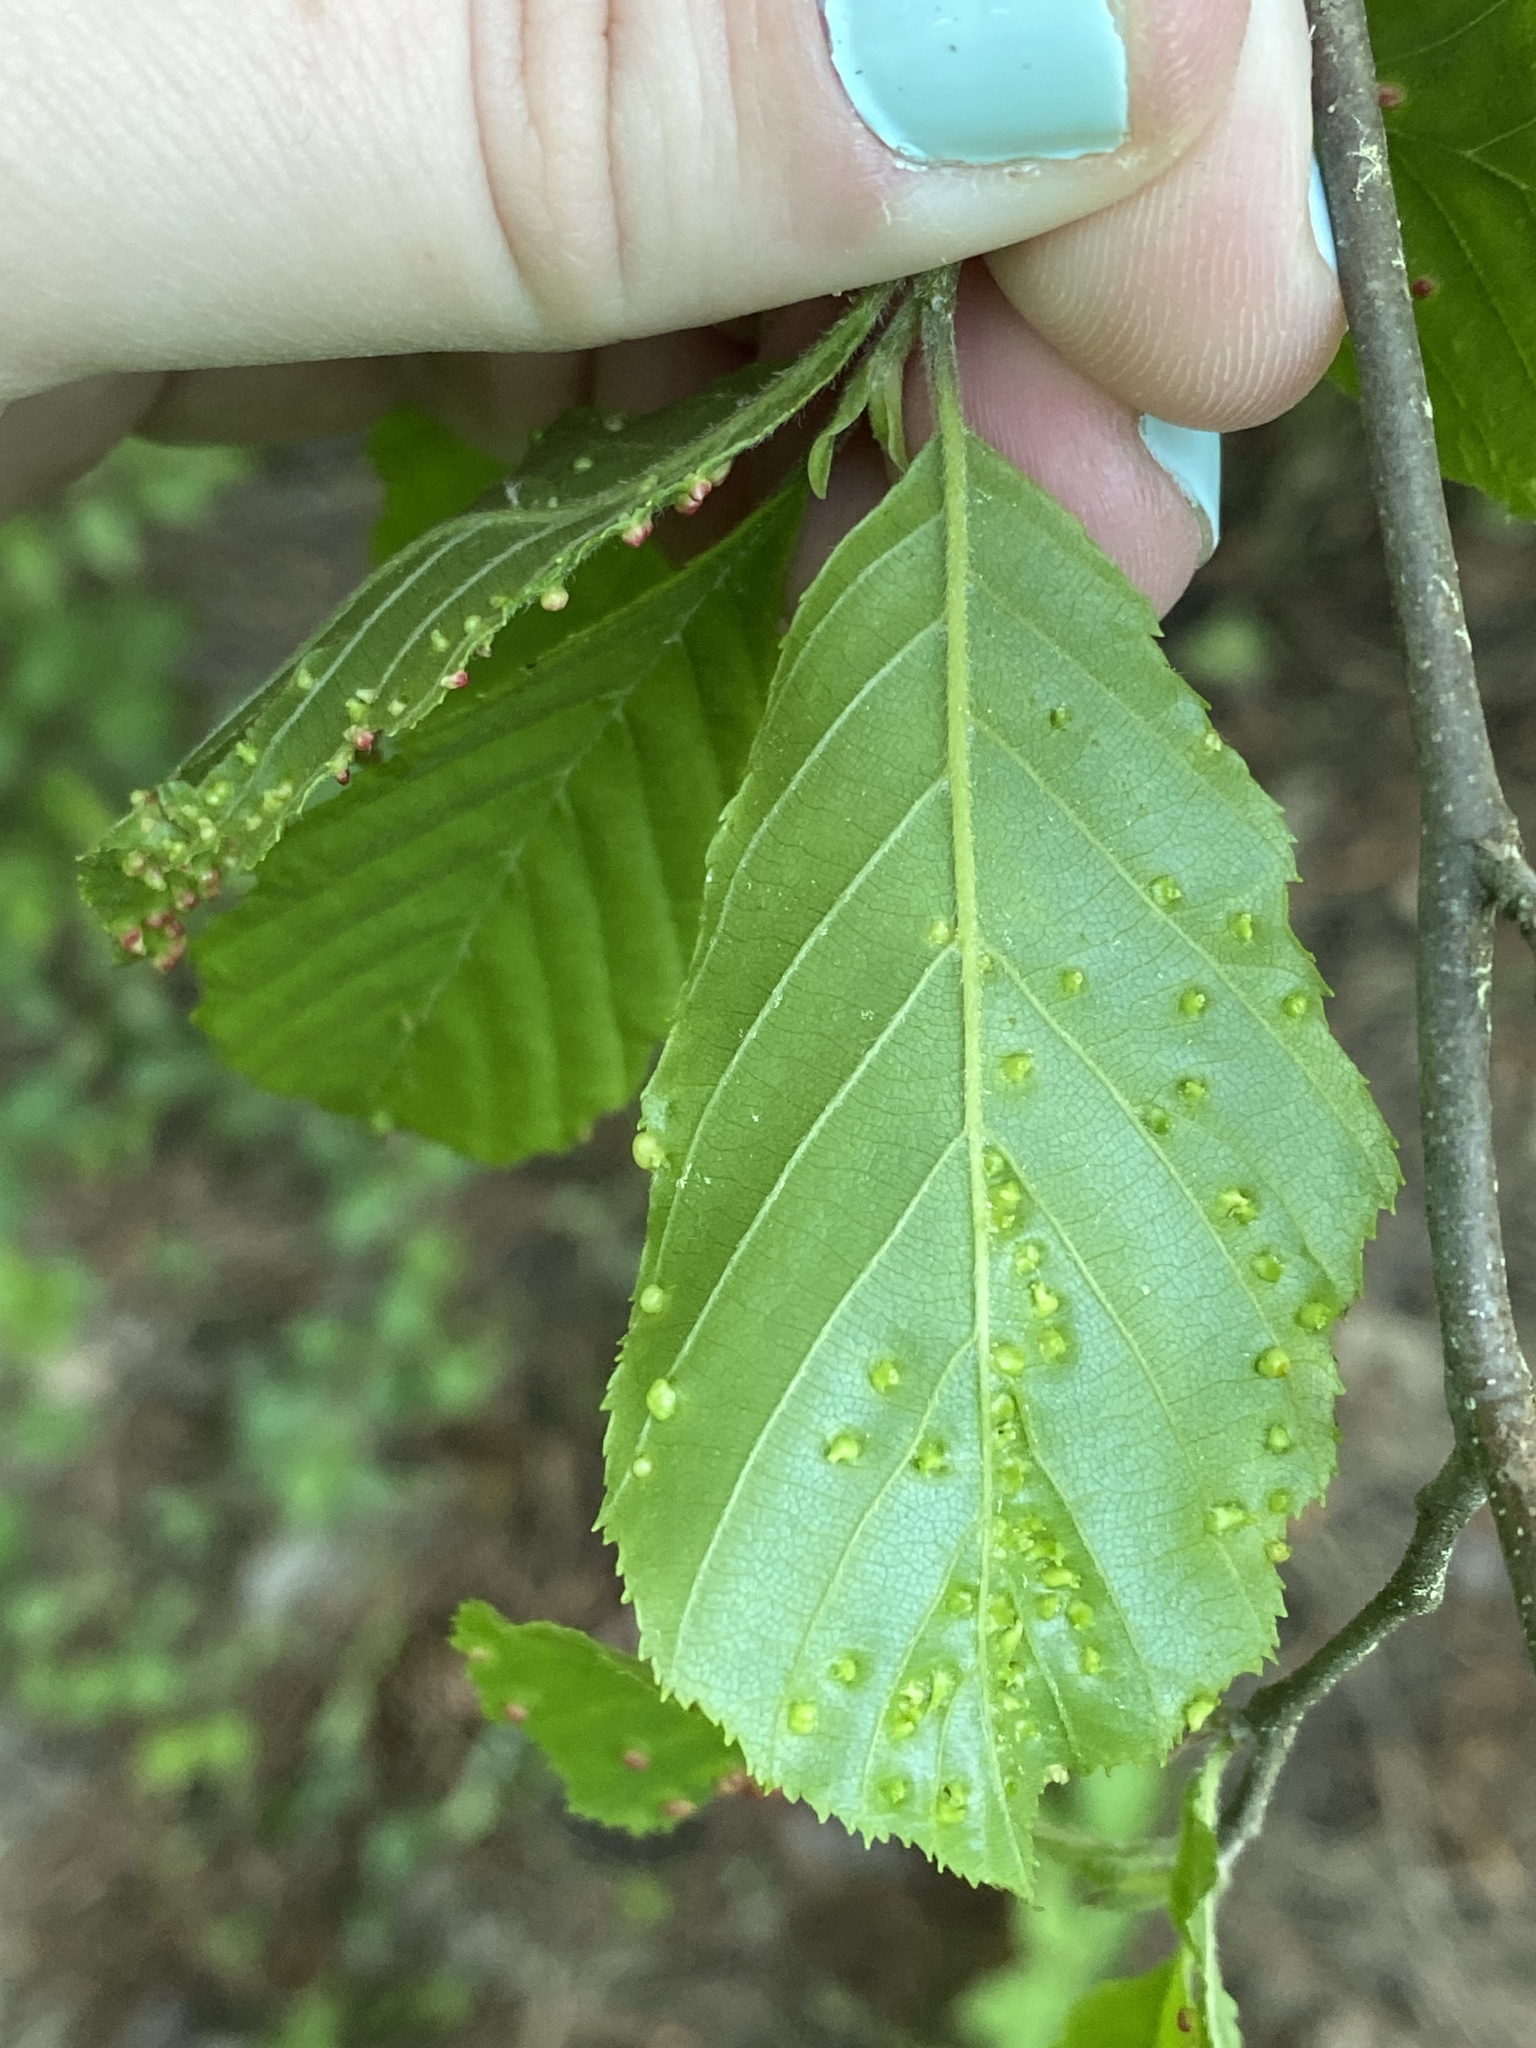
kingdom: Animalia
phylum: Arthropoda
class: Arachnida
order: Trombidiformes
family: Eriophyidae
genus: Eriophyes
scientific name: Eriophyes laevis
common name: Alder leaf gall mite
